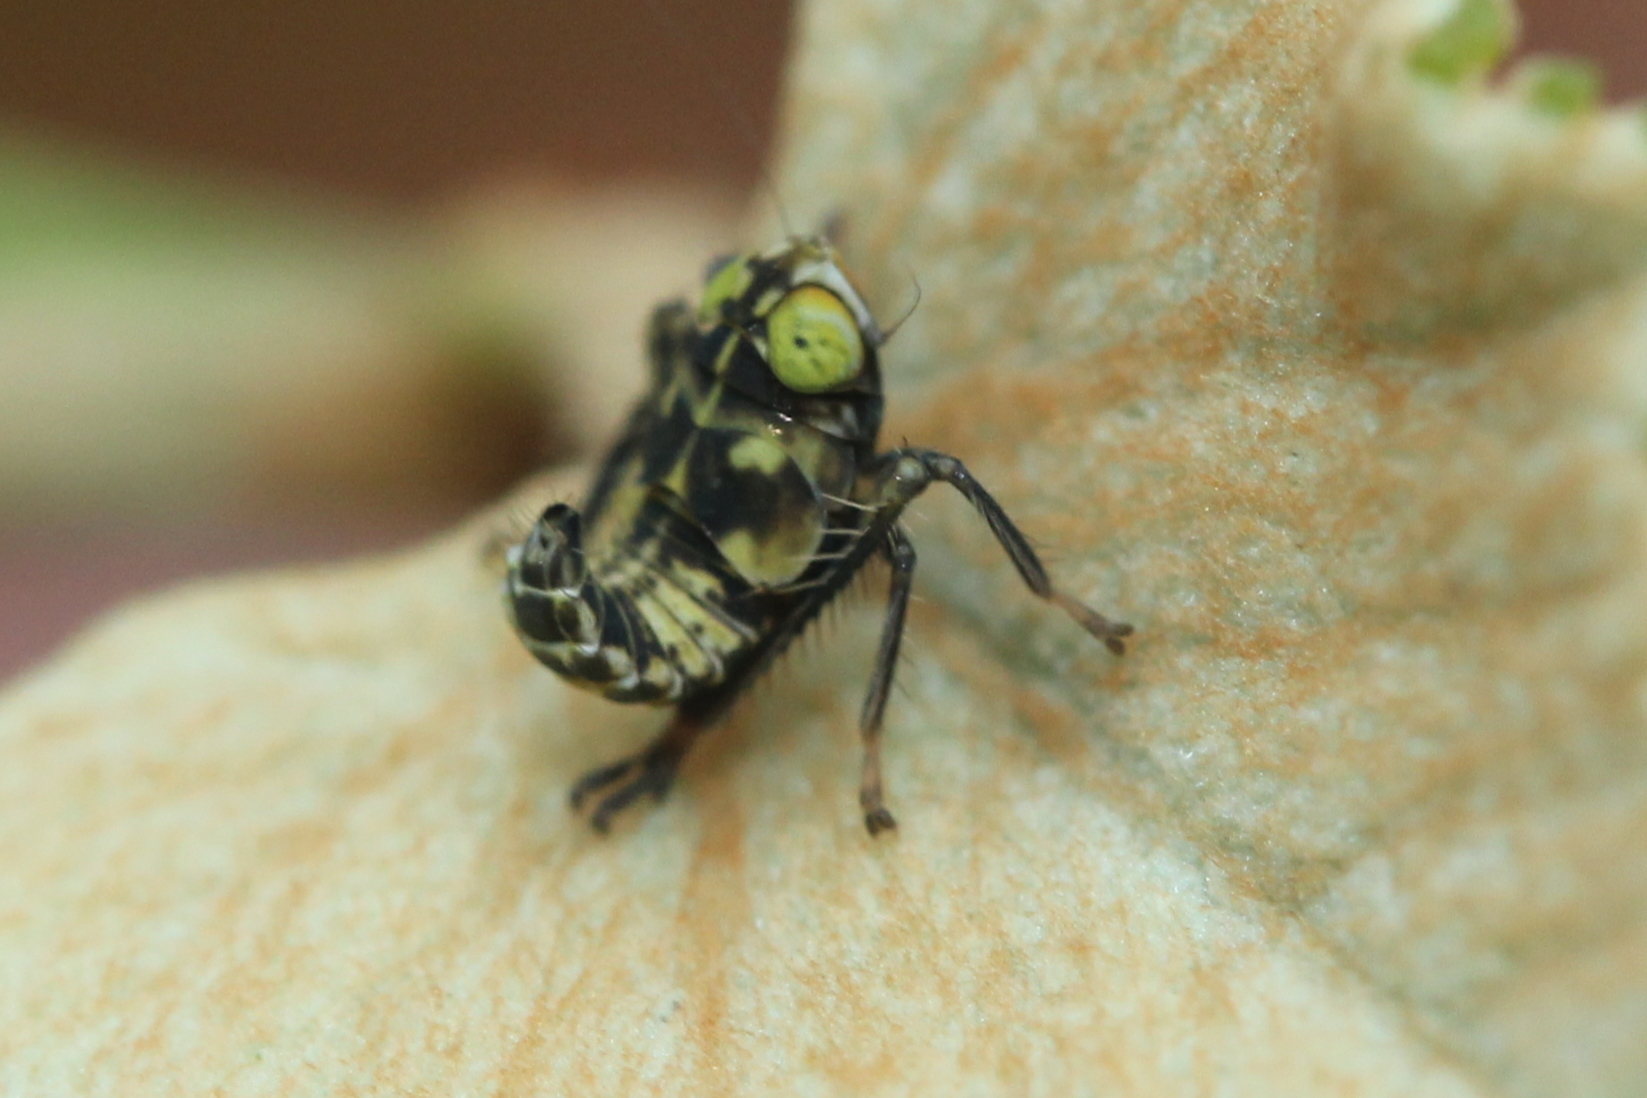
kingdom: Animalia
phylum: Arthropoda
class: Insecta
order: Hemiptera
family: Cicadellidae
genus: Jikradia
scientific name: Jikradia olitoria
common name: Coppery leafhopper
